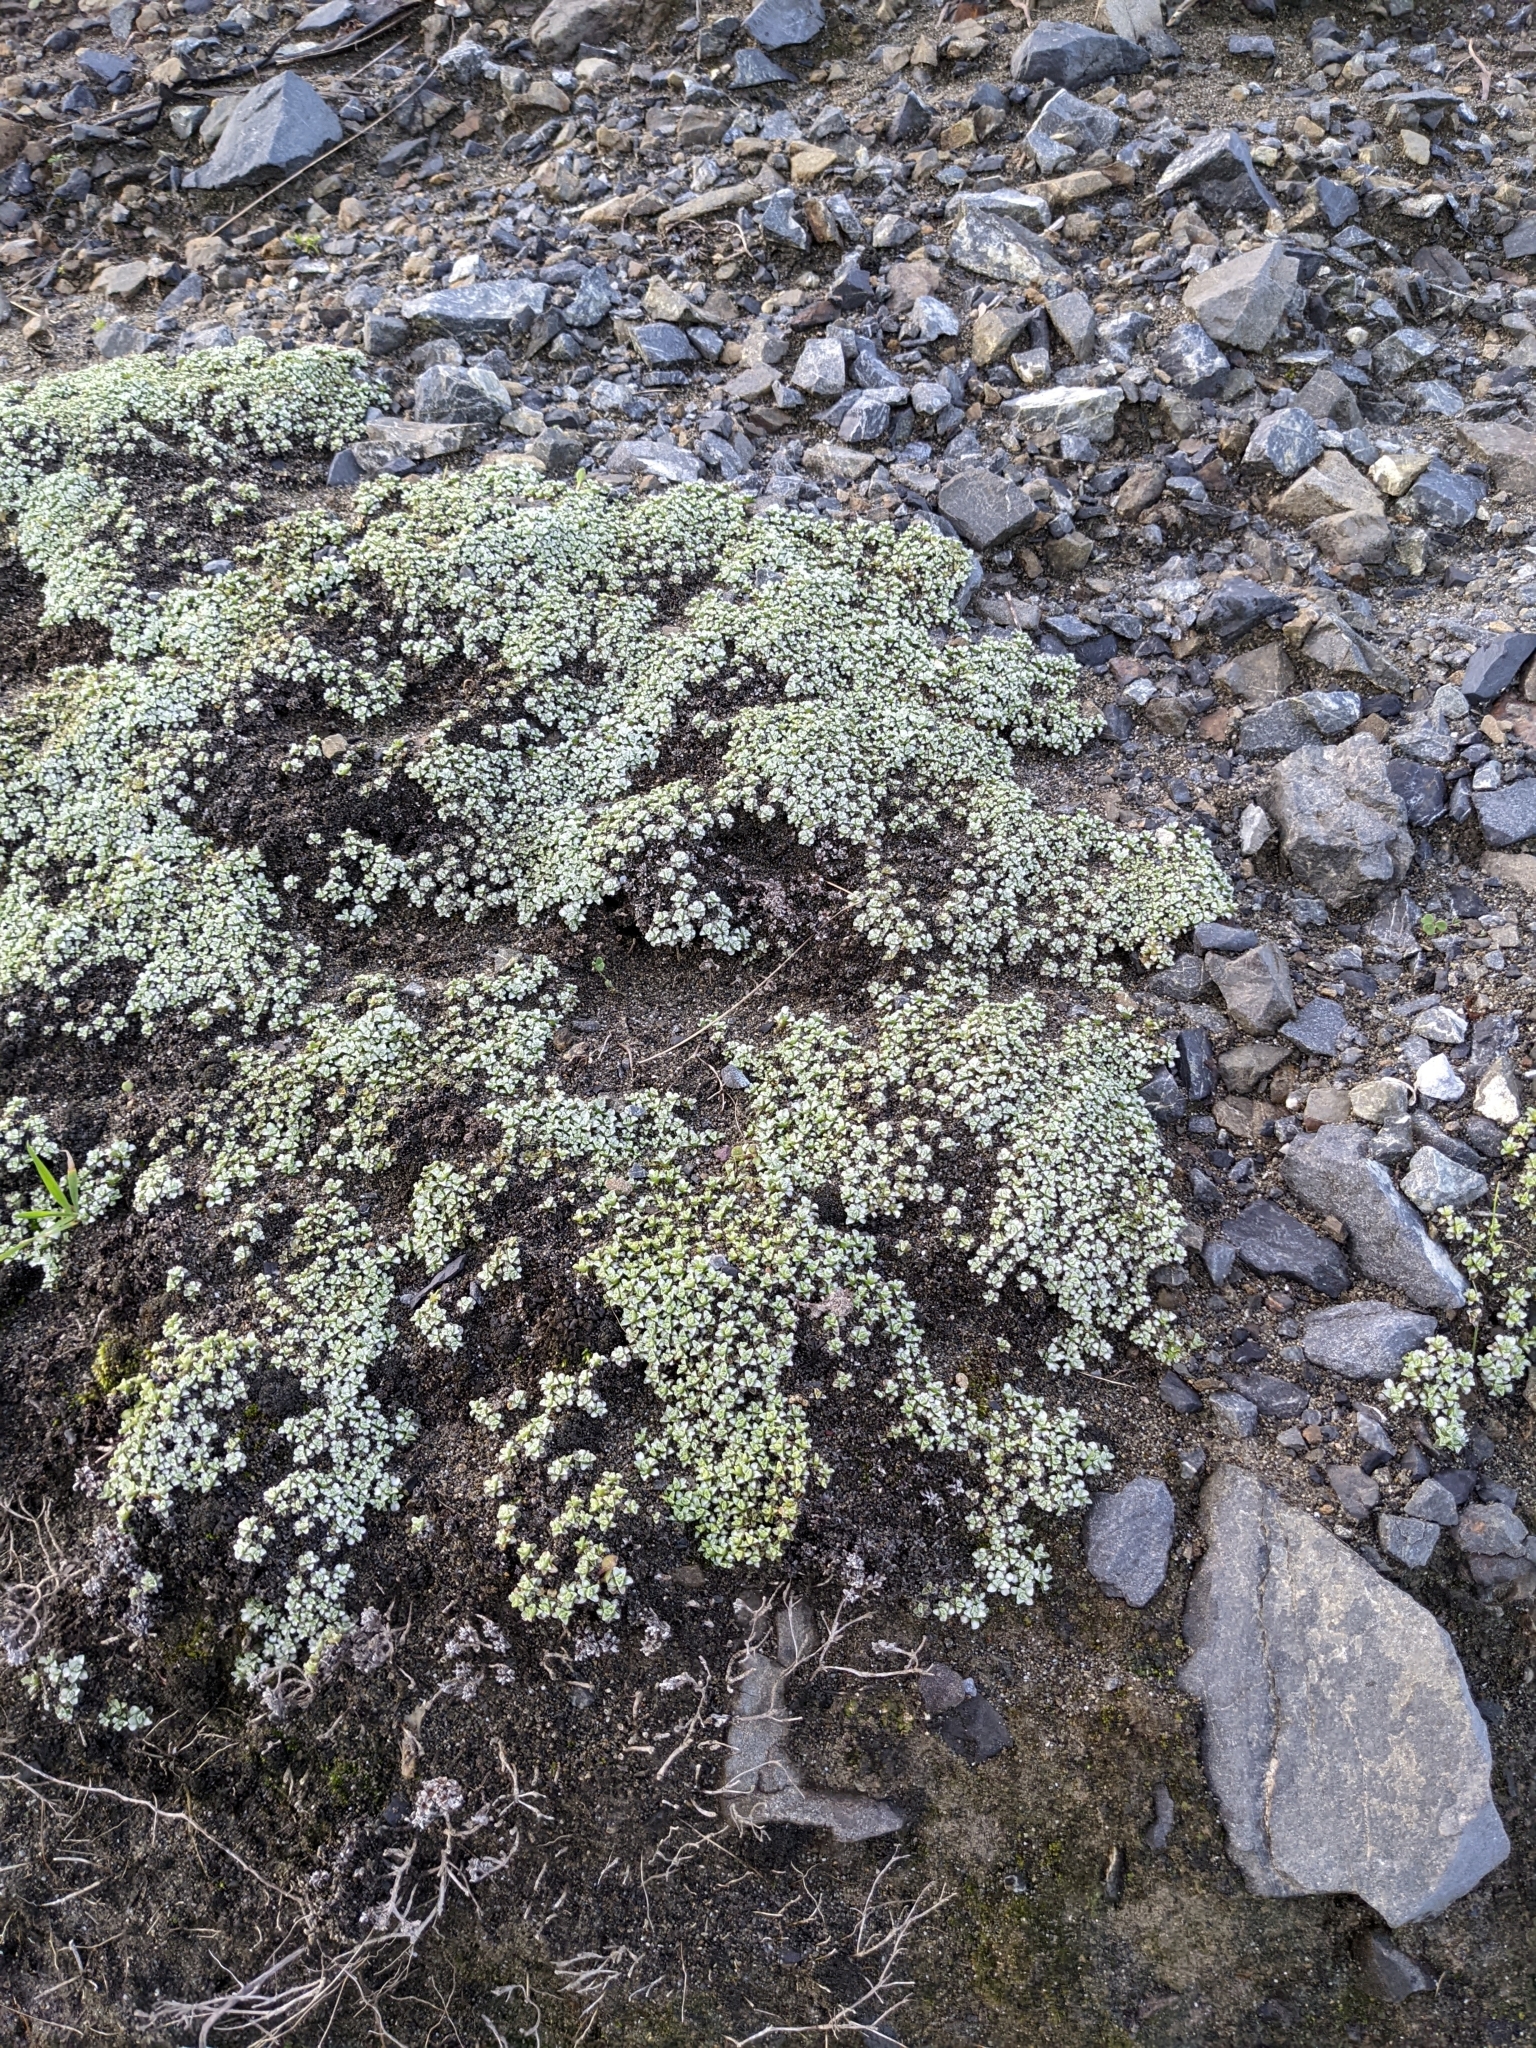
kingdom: Plantae
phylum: Tracheophyta
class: Magnoliopsida
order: Asterales
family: Asteraceae
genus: Raoulia
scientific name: Raoulia hookeri
